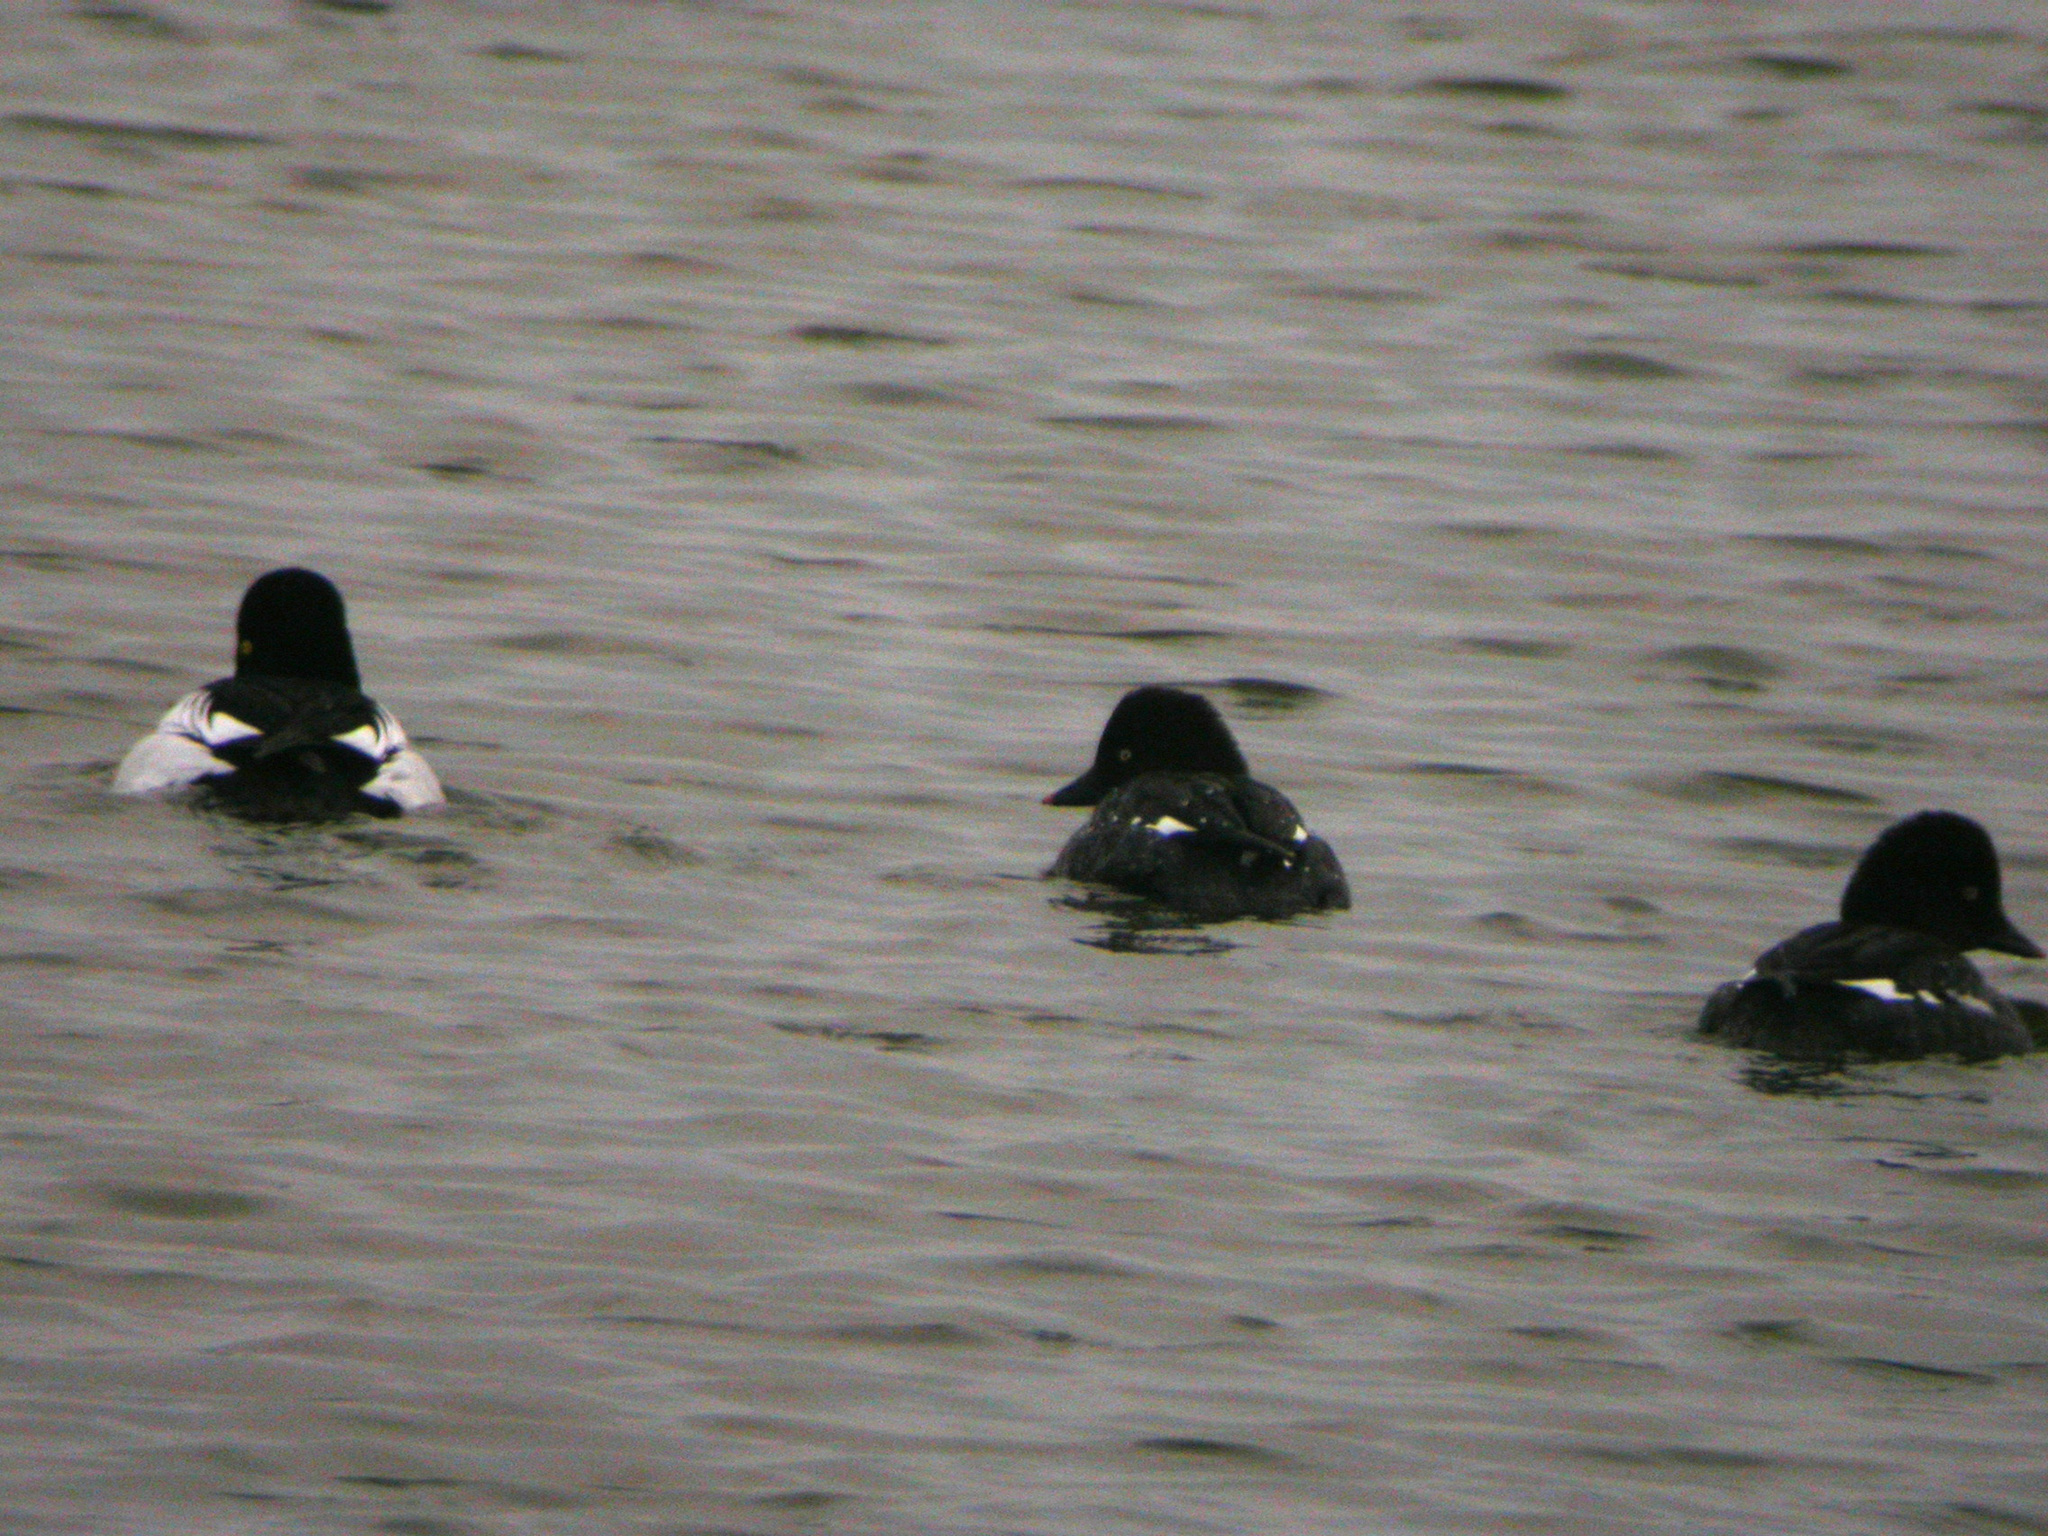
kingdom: Animalia
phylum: Chordata
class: Aves
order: Anseriformes
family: Anatidae
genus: Bucephala
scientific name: Bucephala clangula
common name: Common goldeneye
